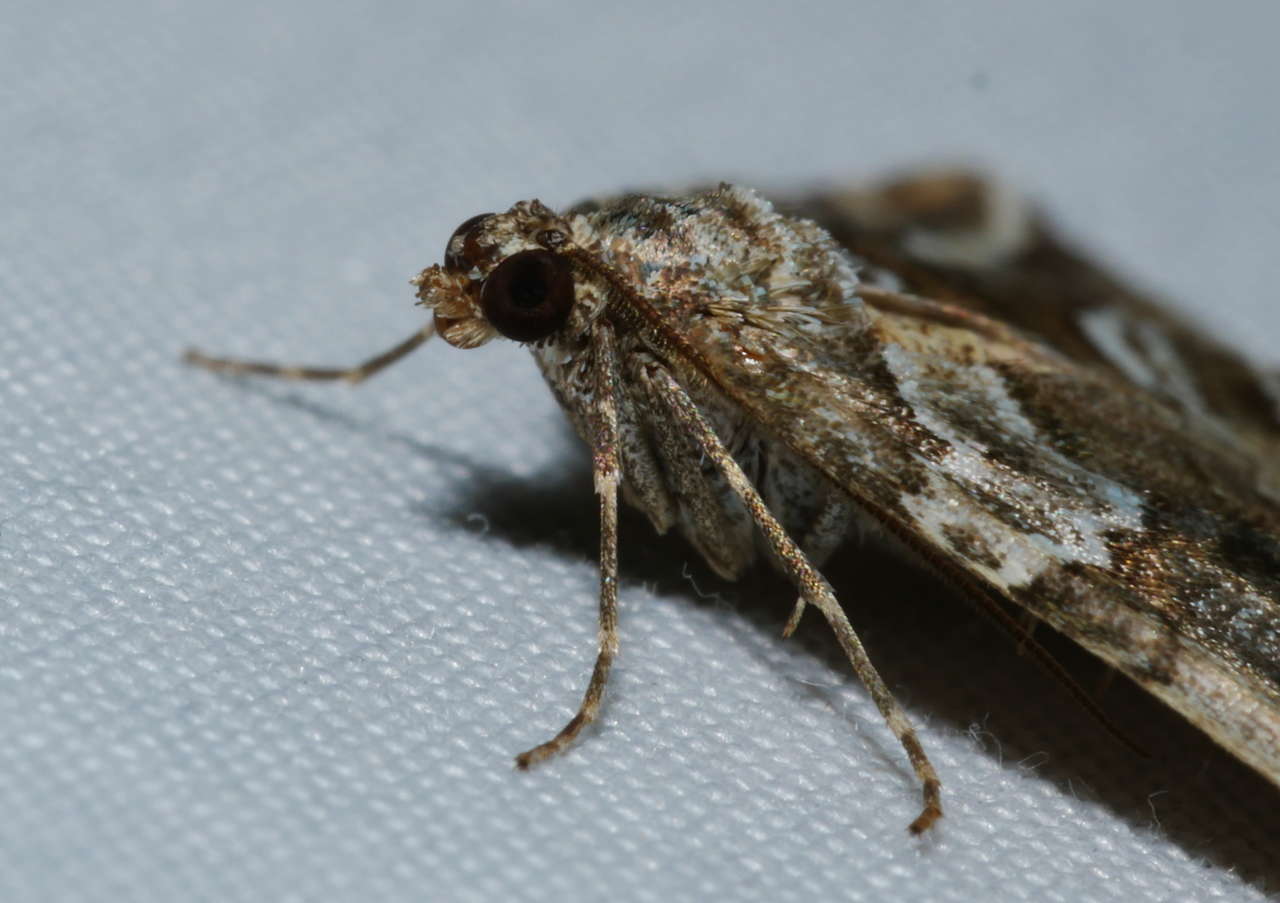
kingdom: Animalia
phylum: Arthropoda
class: Insecta
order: Lepidoptera
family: Geometridae
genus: Chrysolarentia
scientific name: Chrysolarentia actinipha
